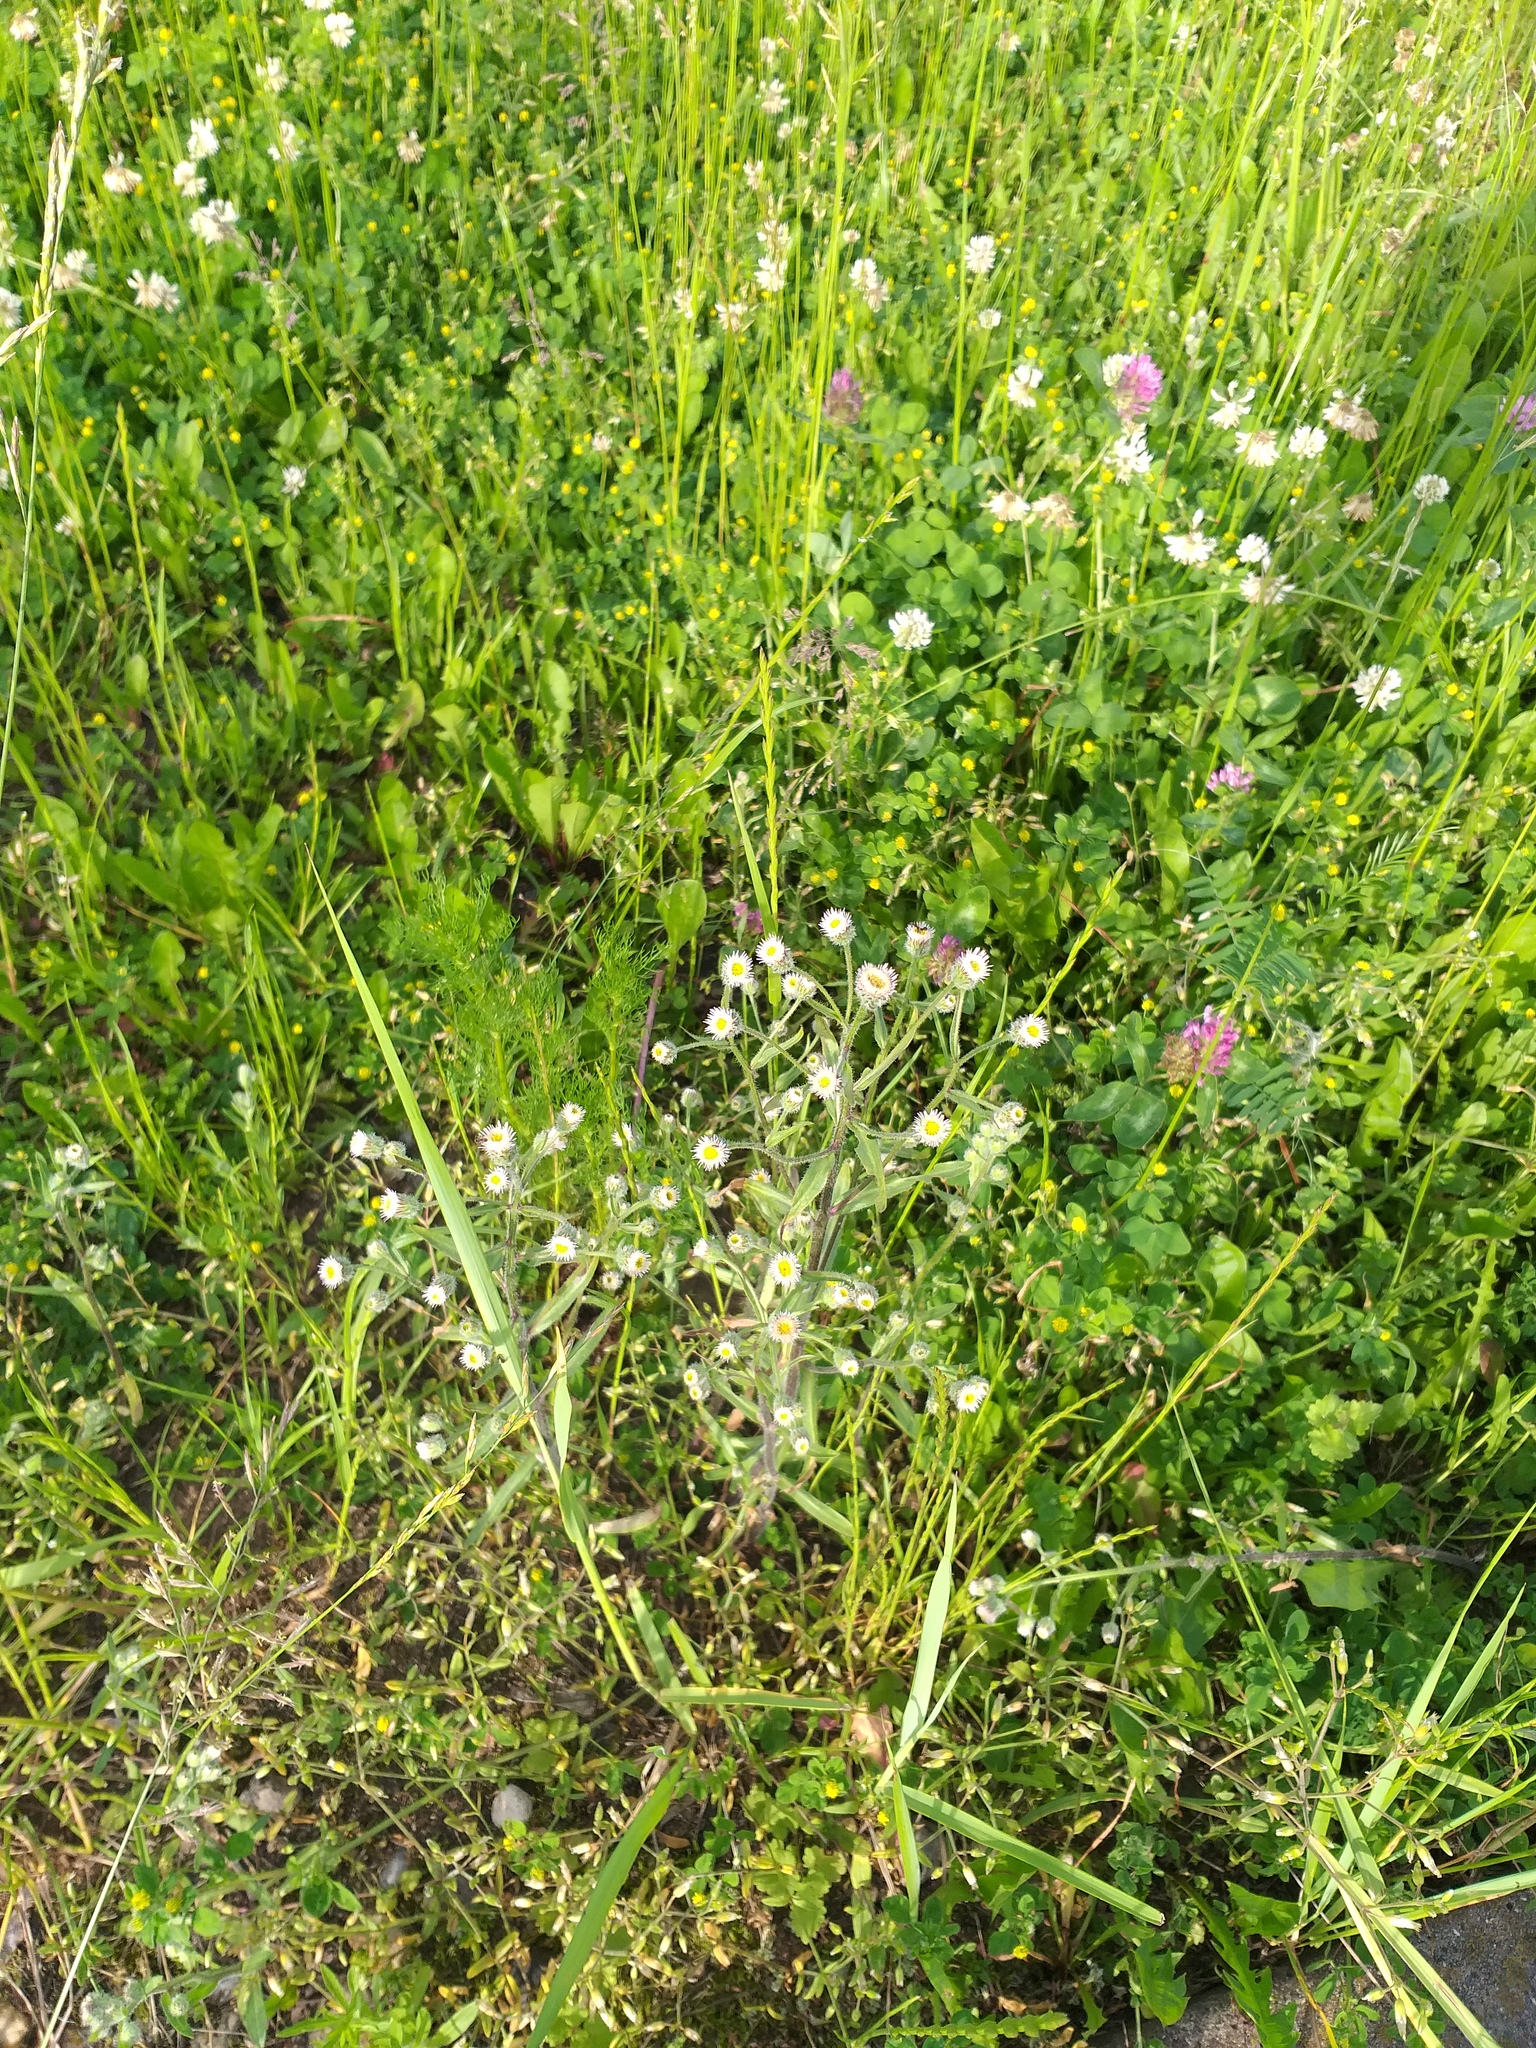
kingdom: Plantae
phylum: Tracheophyta
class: Magnoliopsida
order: Asterales
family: Asteraceae
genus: Erigeron
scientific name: Erigeron acris
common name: Blue fleabane
